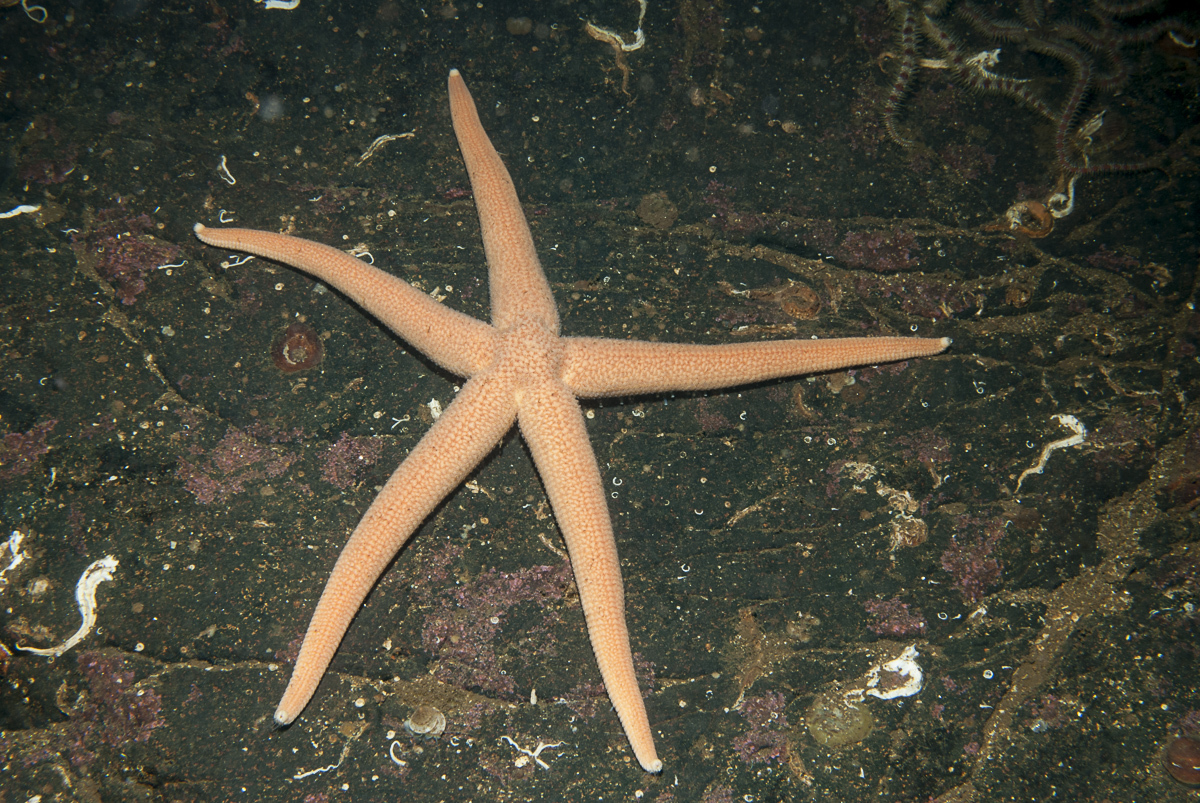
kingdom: Animalia
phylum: Echinodermata
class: Asteroidea
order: Forcipulatida
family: Stichasteridae
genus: Stichastrella
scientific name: Stichastrella rosea
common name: Rosy starfish
